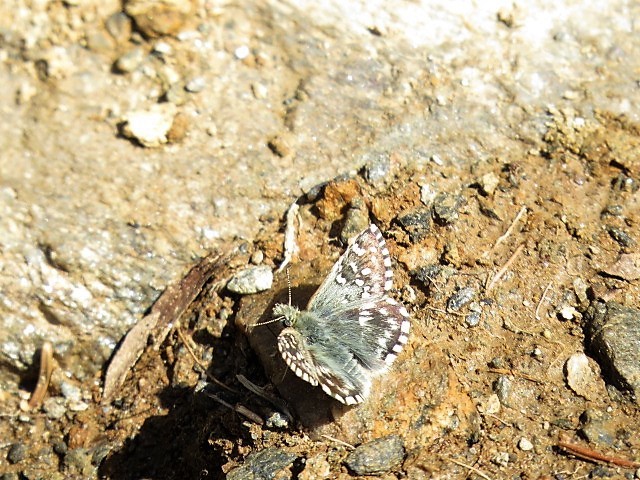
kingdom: Animalia
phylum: Arthropoda
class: Insecta
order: Lepidoptera
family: Hesperiidae
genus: Pyrgus
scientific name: Pyrgus malvoides
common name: Southern grizzled skipper
